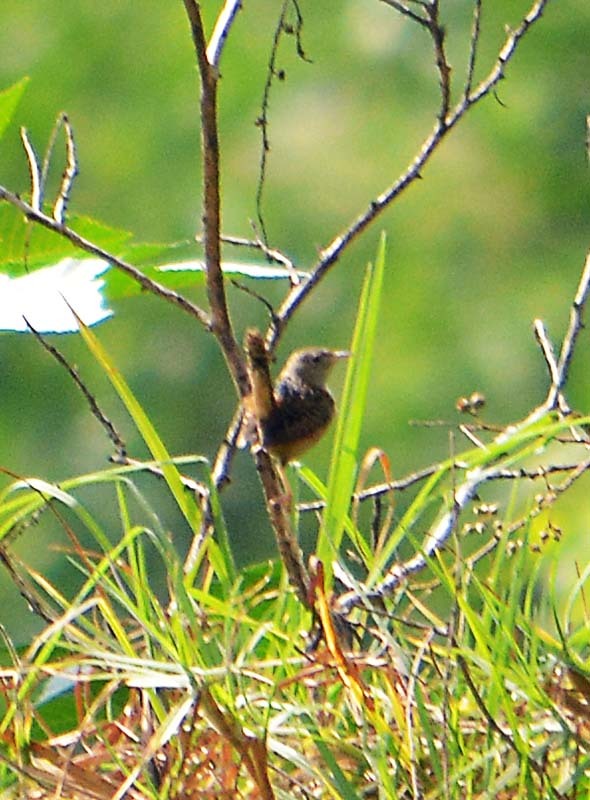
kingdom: Animalia
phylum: Chordata
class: Aves
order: Passeriformes
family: Troglodytidae
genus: Cistothorus
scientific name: Cistothorus platensis
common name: Sedge wren
